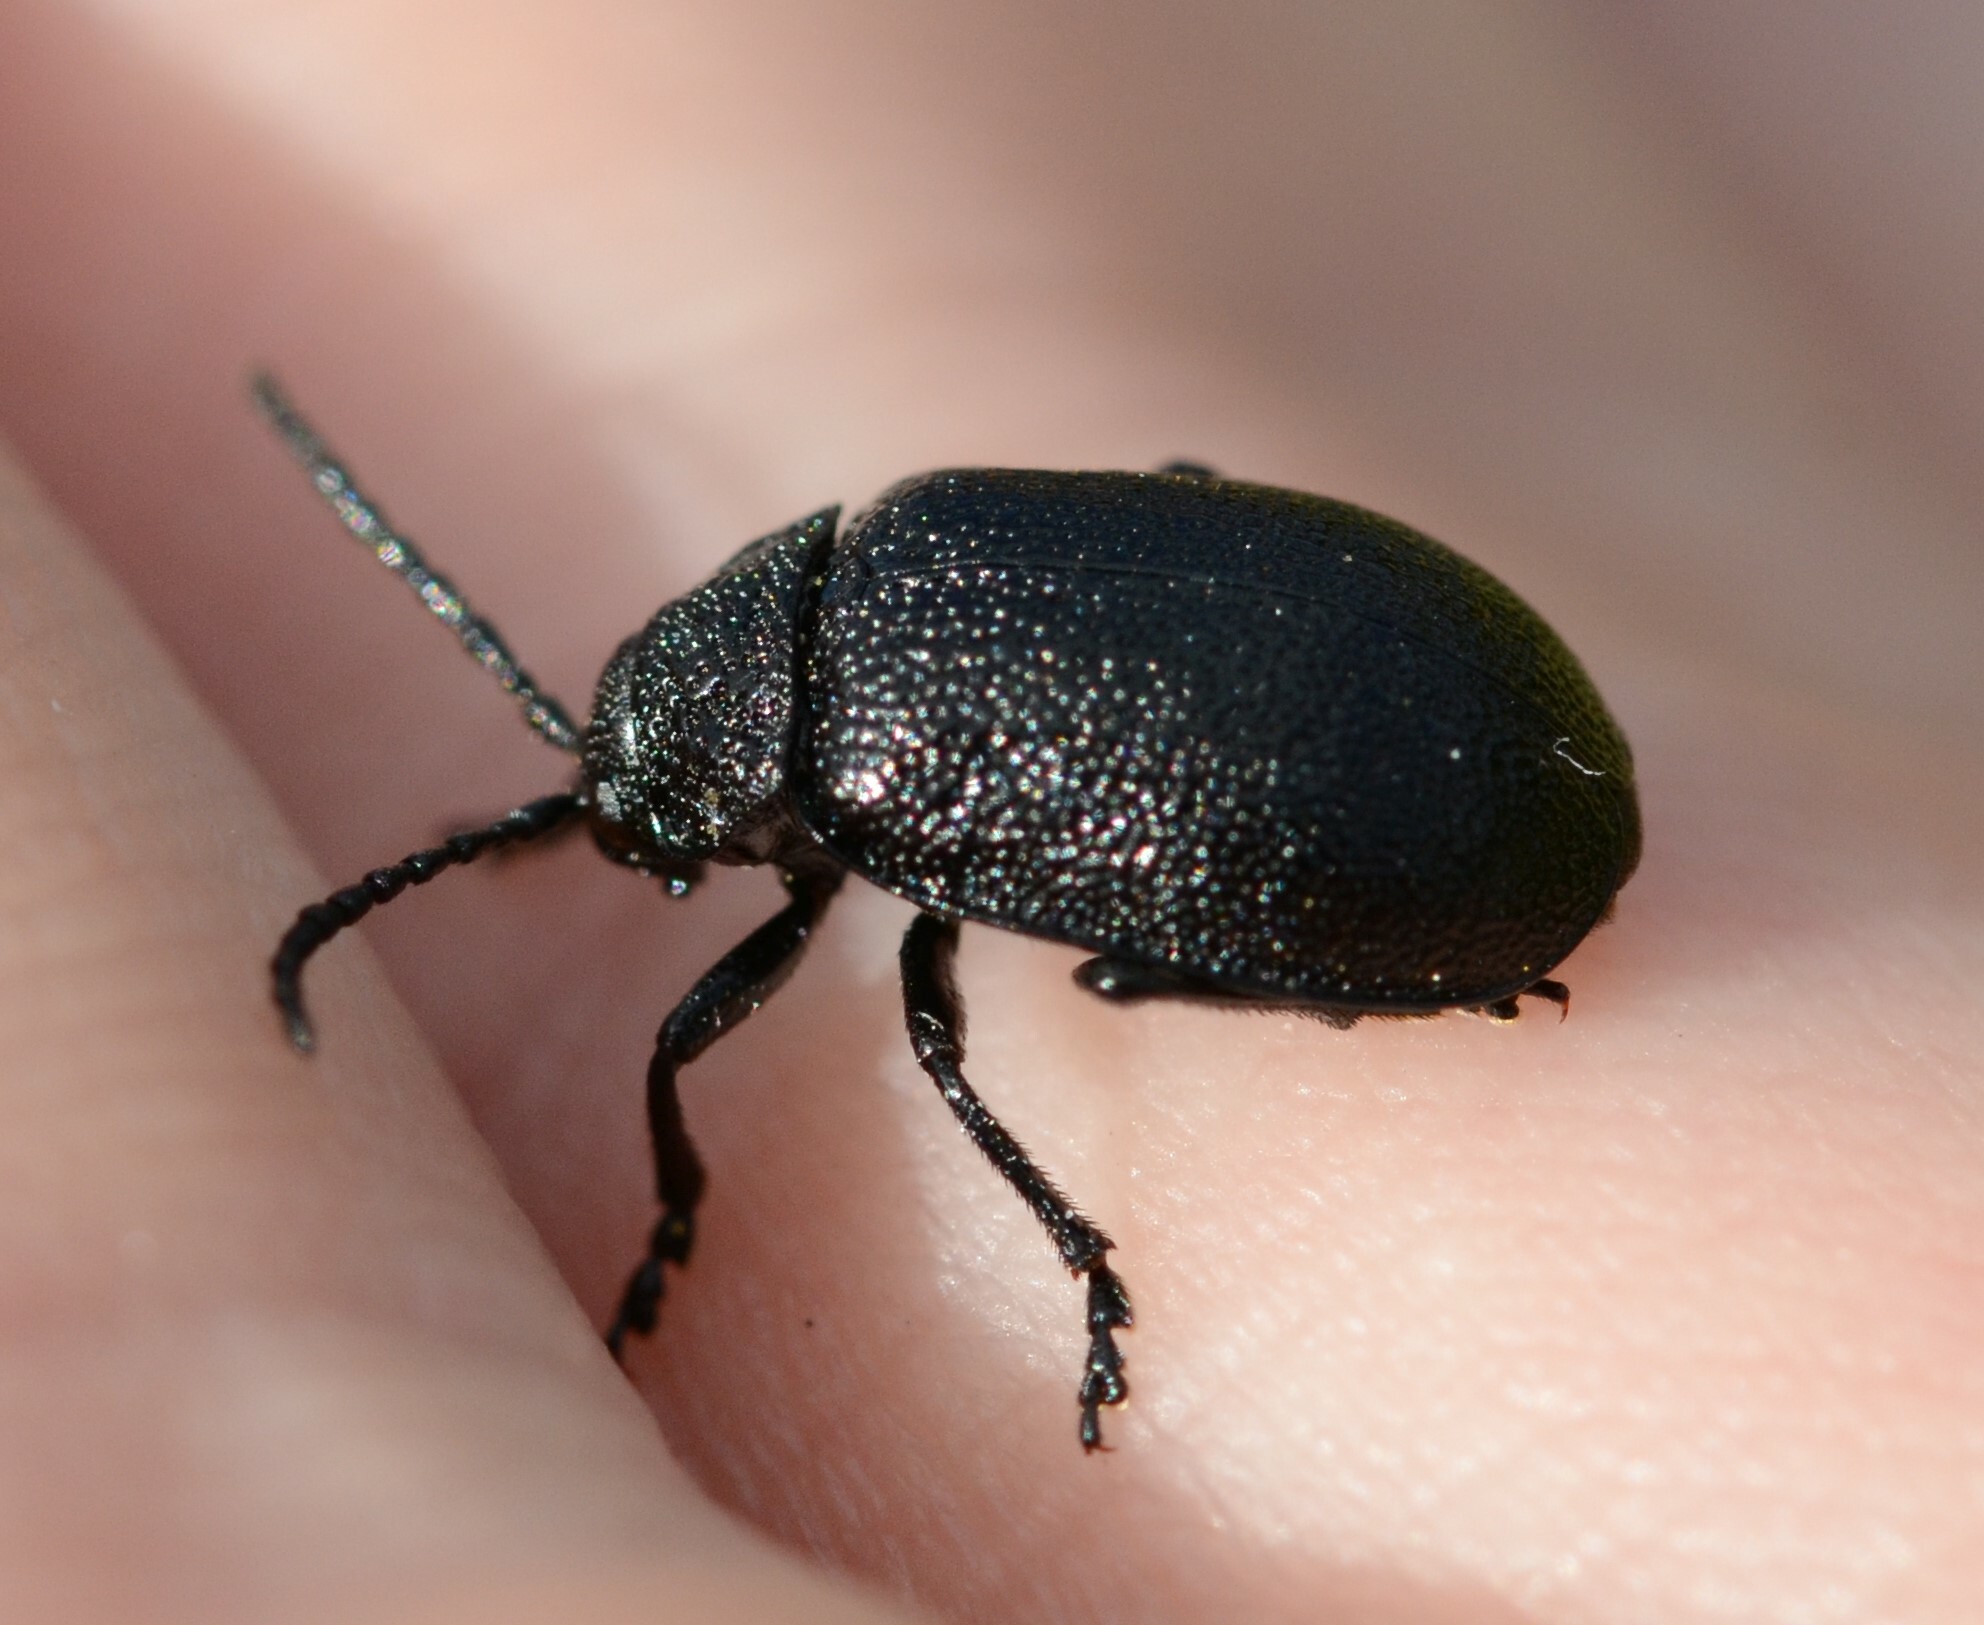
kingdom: Animalia
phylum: Arthropoda
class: Insecta
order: Coleoptera
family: Chrysomelidae
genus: Galeruca
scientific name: Galeruca tanaceti
